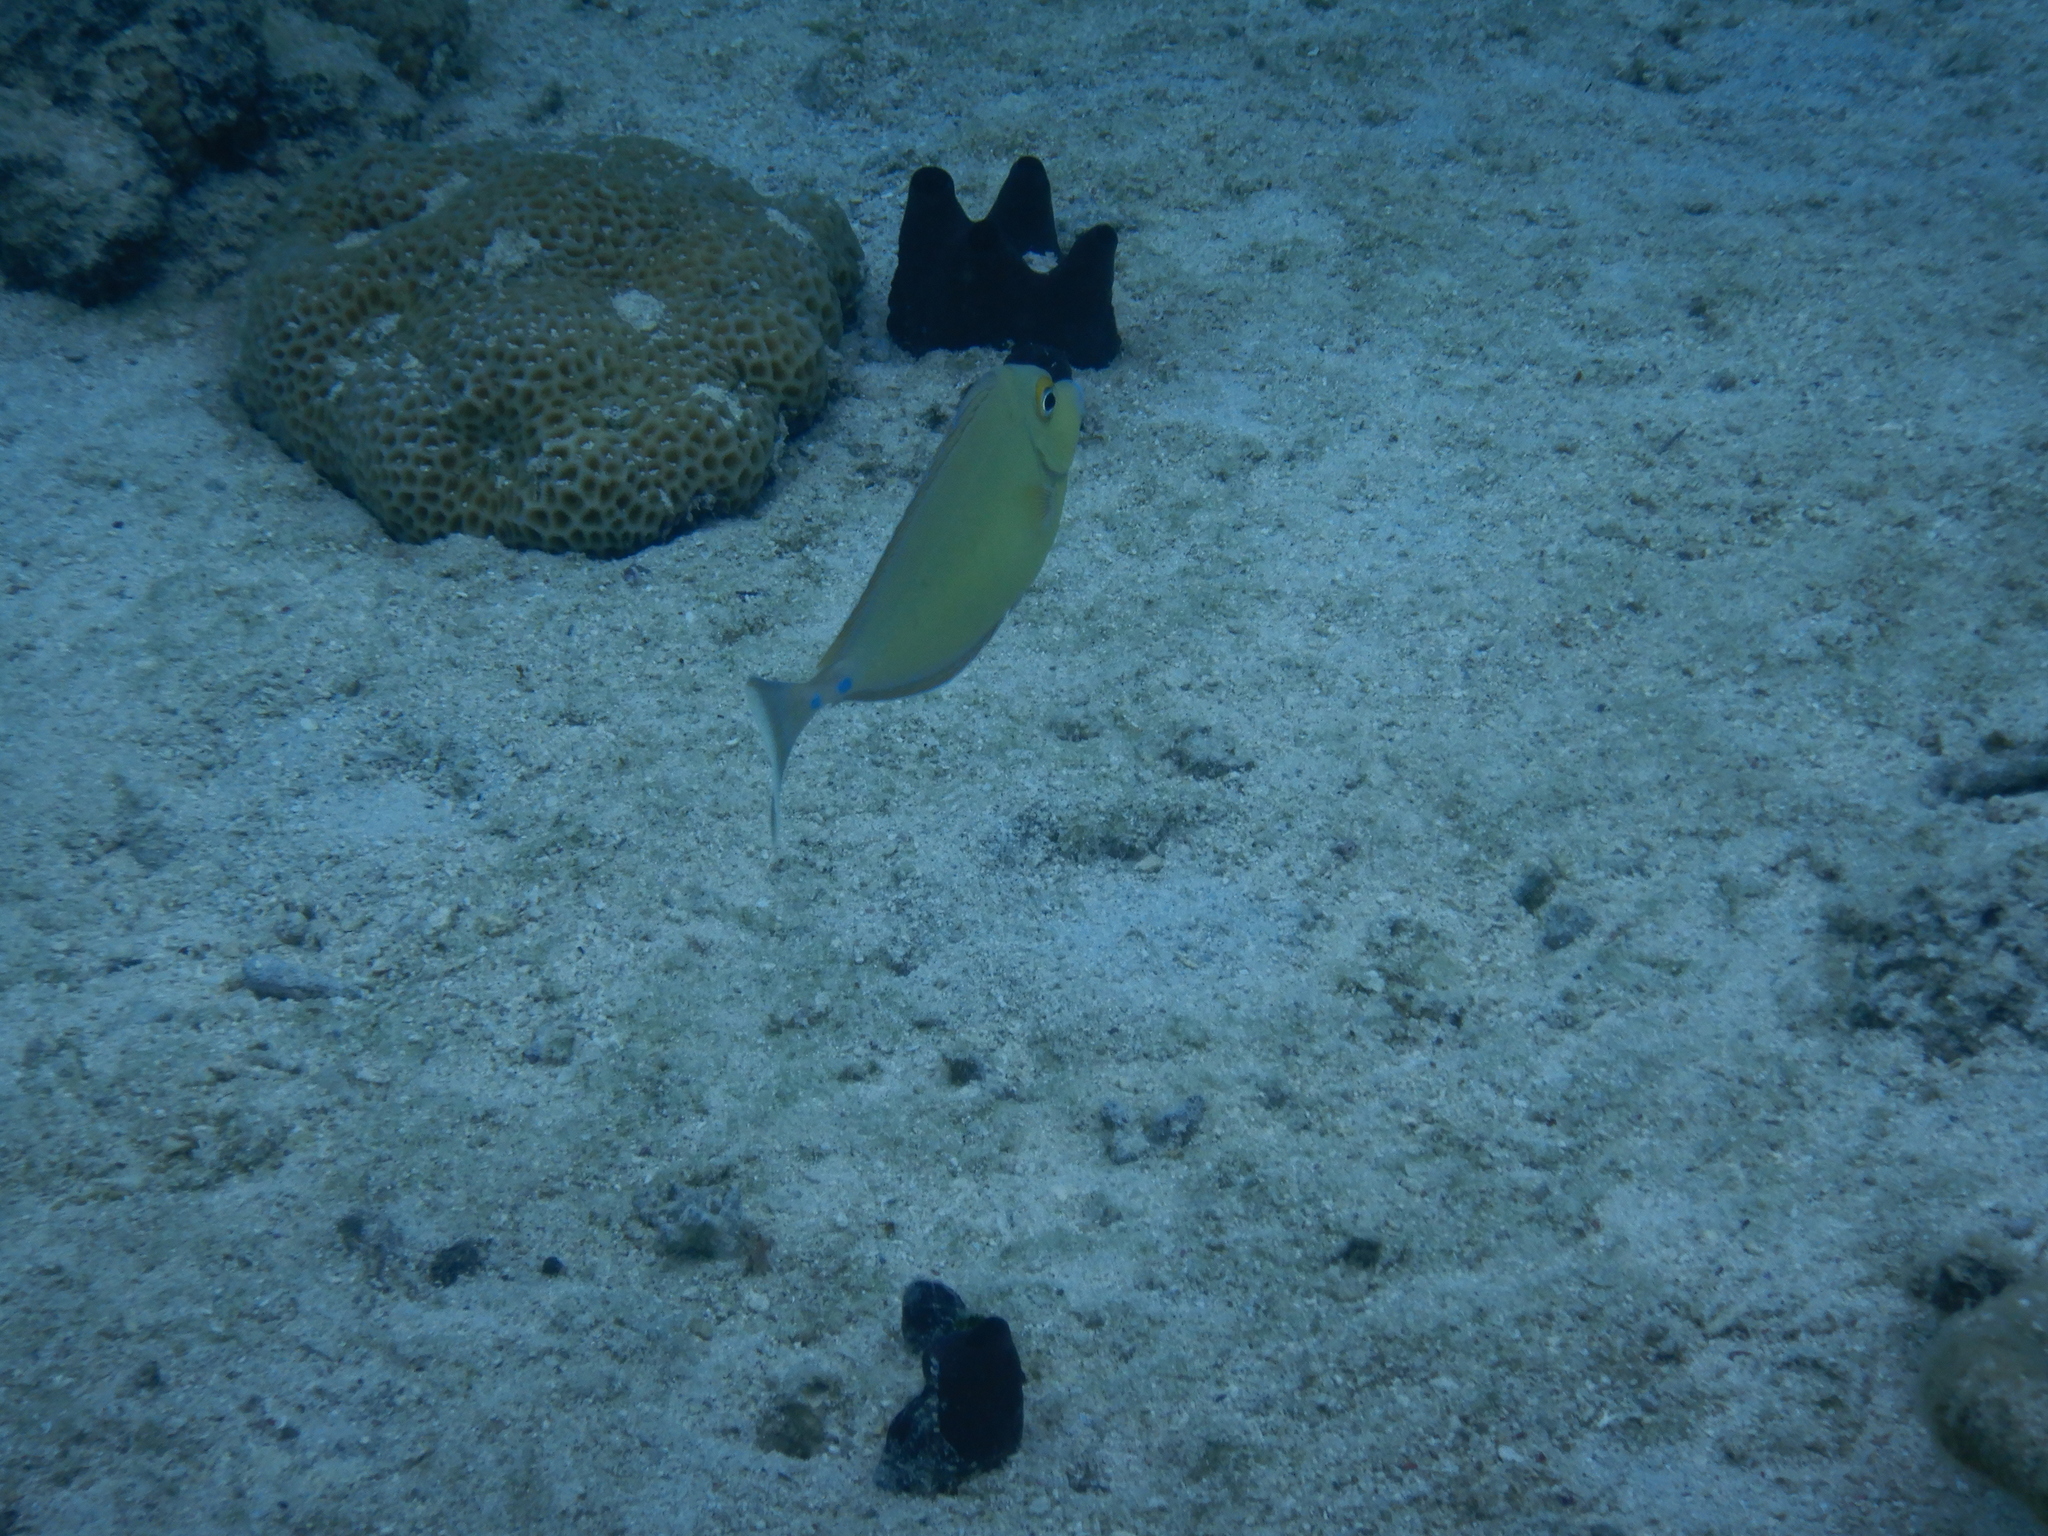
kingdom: Animalia
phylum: Chordata
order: Perciformes
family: Acanthuridae
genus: Naso
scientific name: Naso unicornis
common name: Bluespine unicornfish
